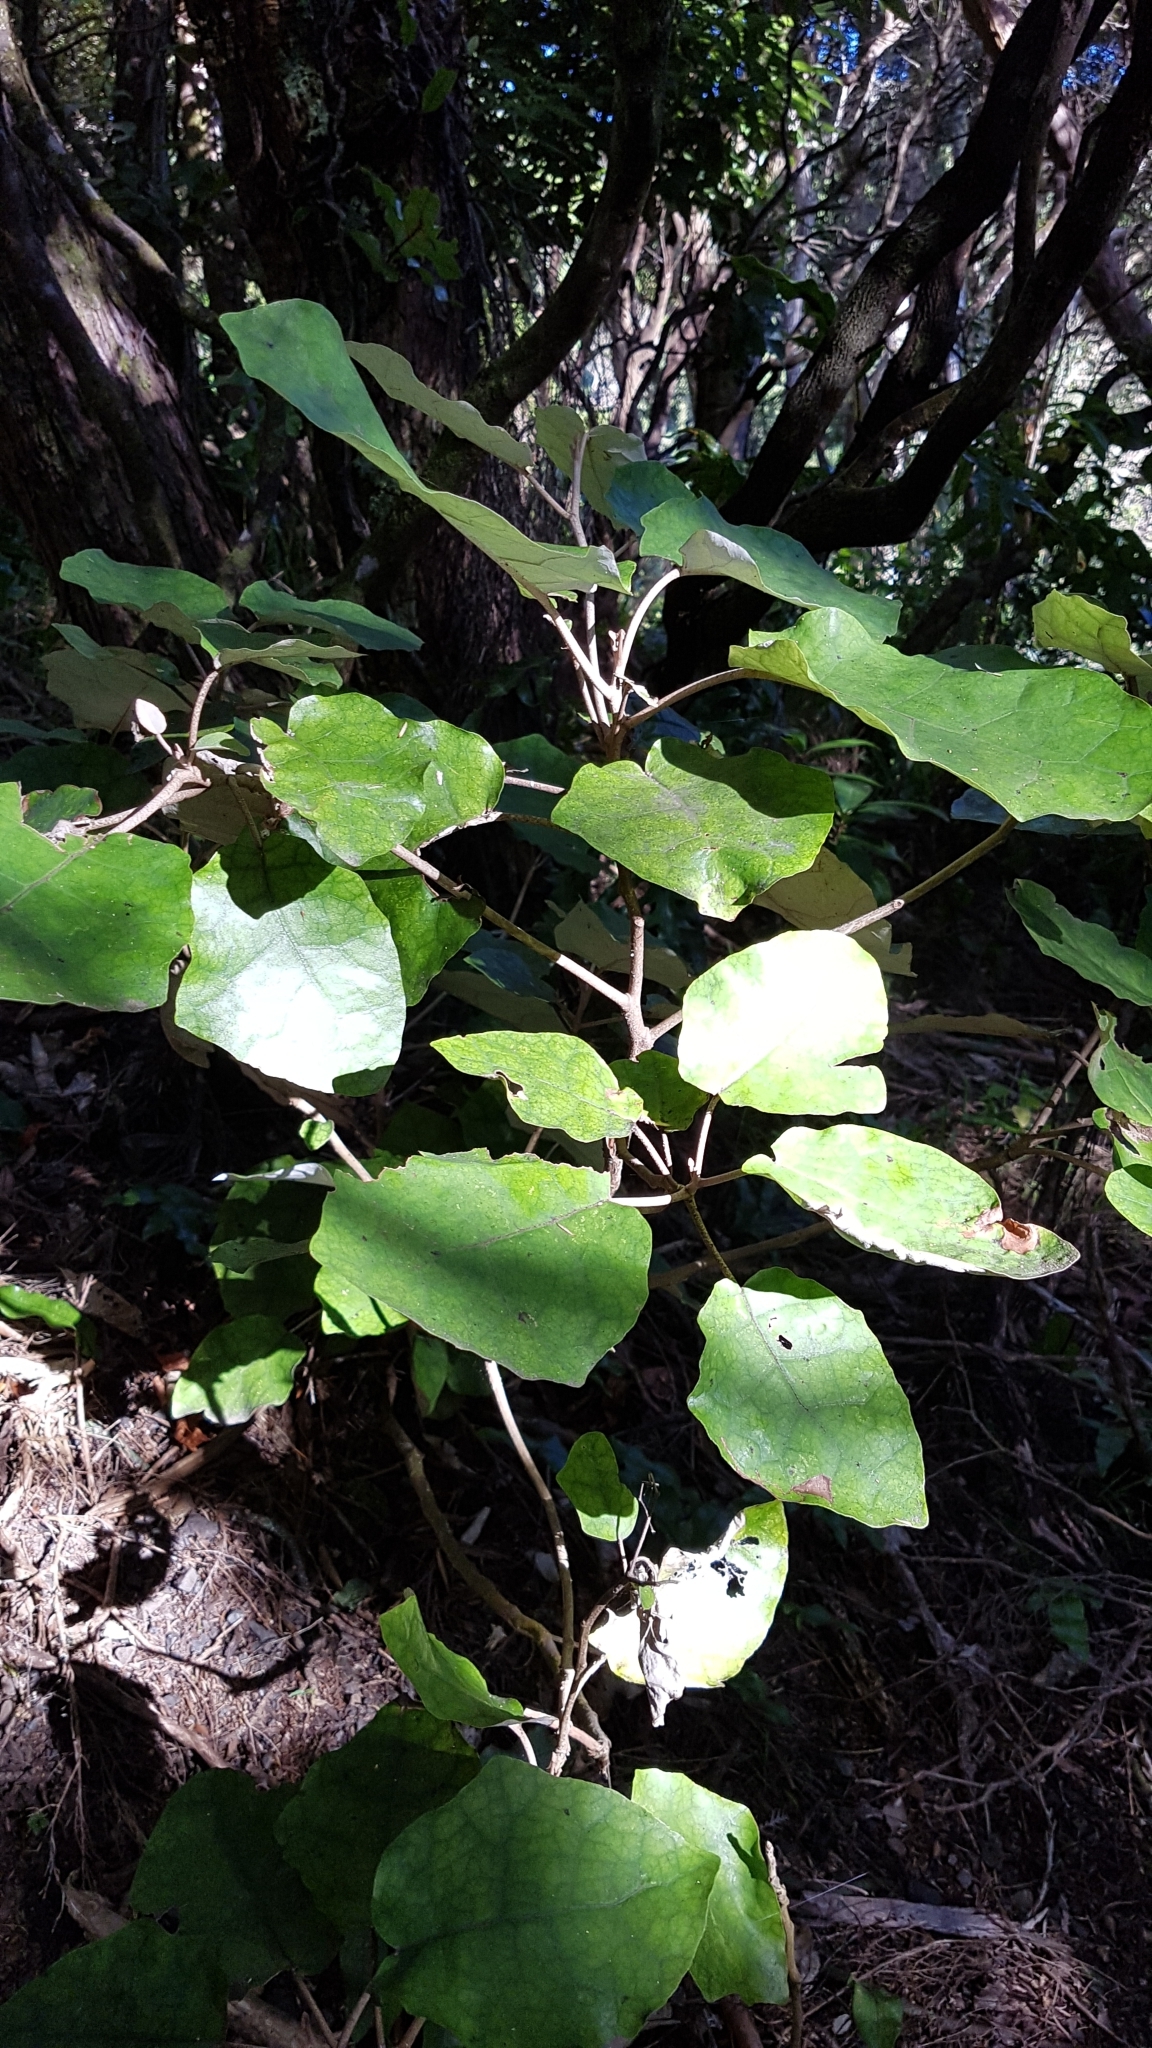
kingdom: Plantae
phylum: Tracheophyta
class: Magnoliopsida
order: Asterales
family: Asteraceae
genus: Brachyglottis
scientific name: Brachyglottis repanda
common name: Hedge ragwort
